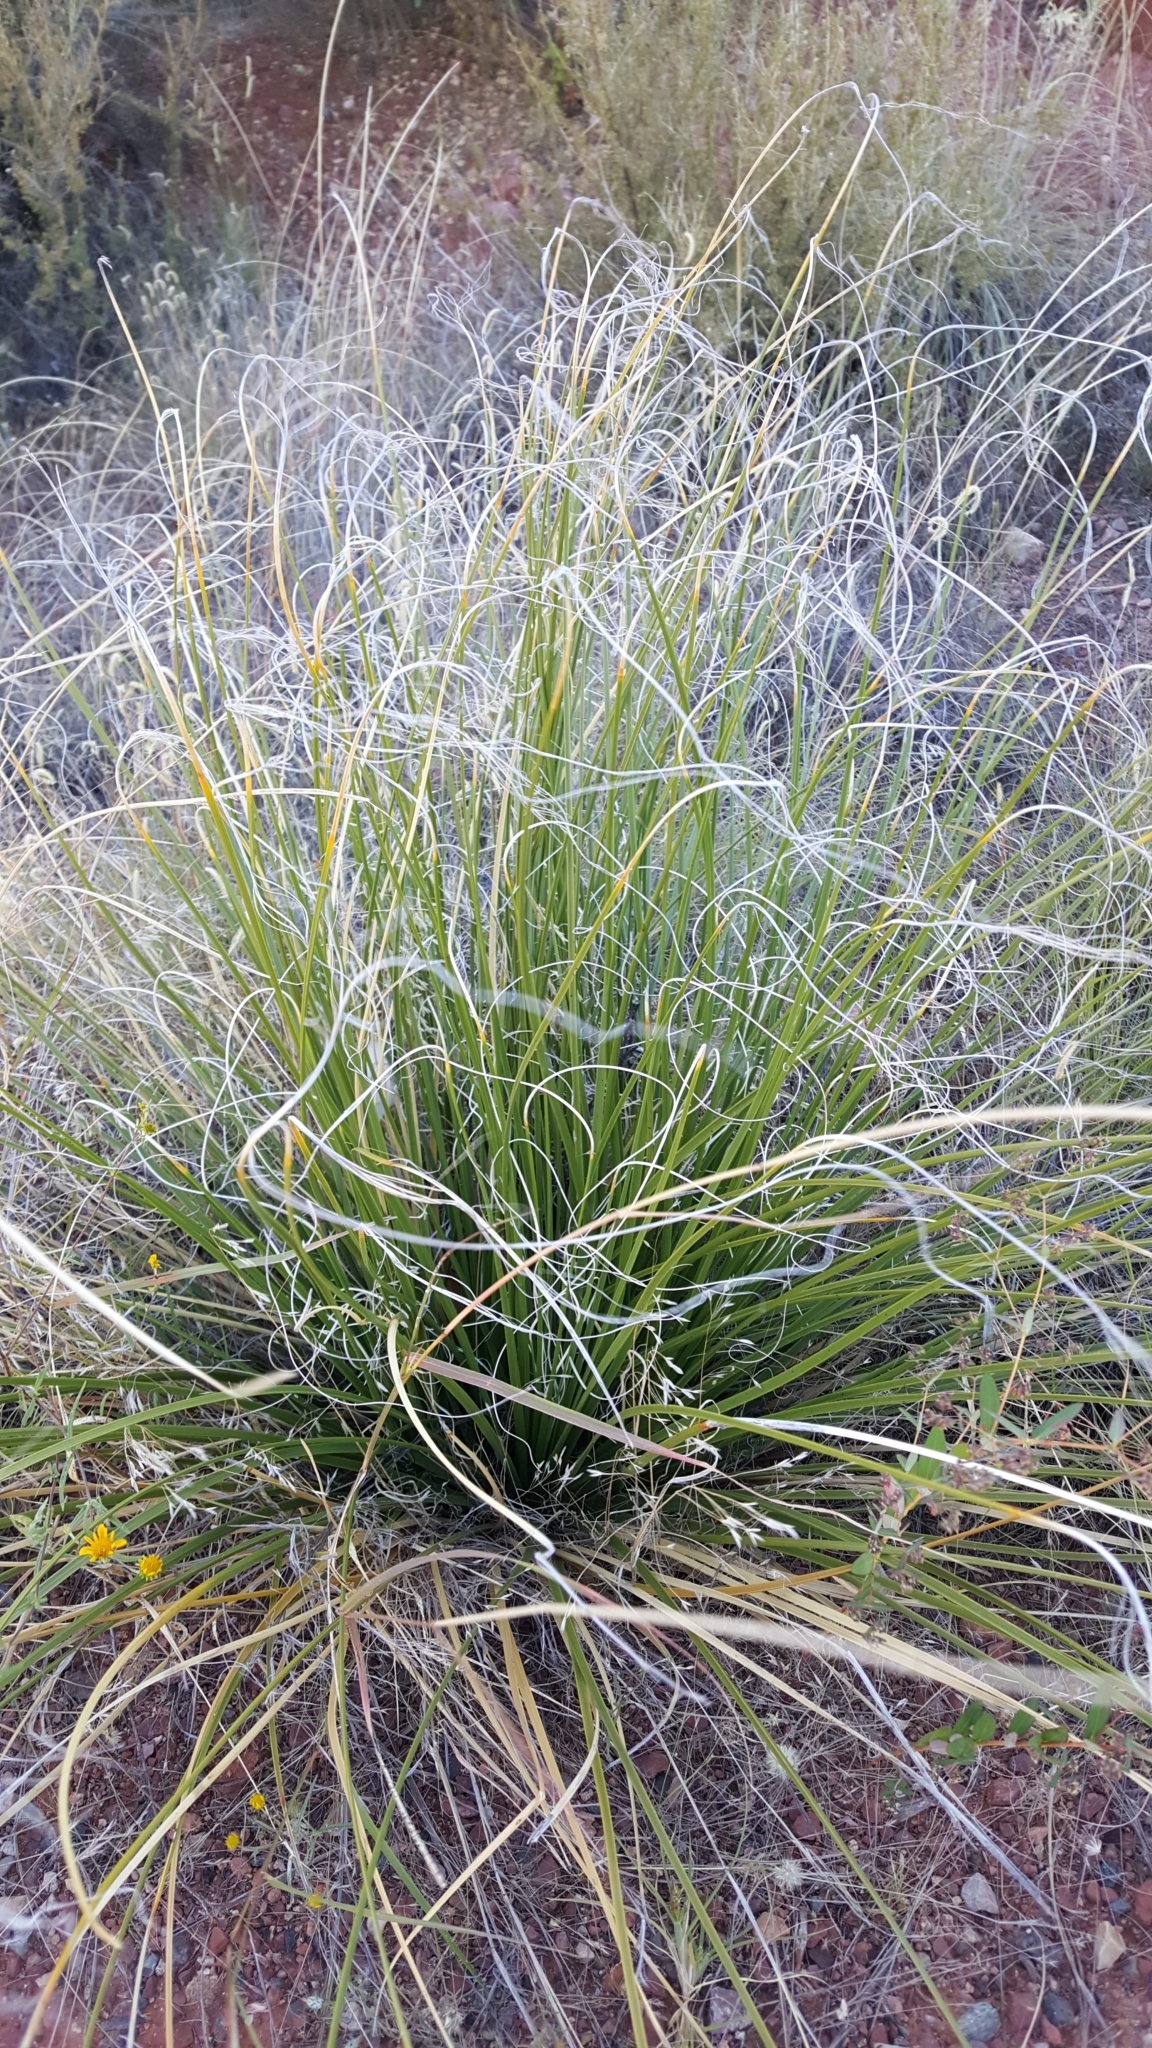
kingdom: Plantae
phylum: Tracheophyta
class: Liliopsida
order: Asparagales
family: Asparagaceae
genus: Nolina
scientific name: Nolina microcarpa
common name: Bear-grass
